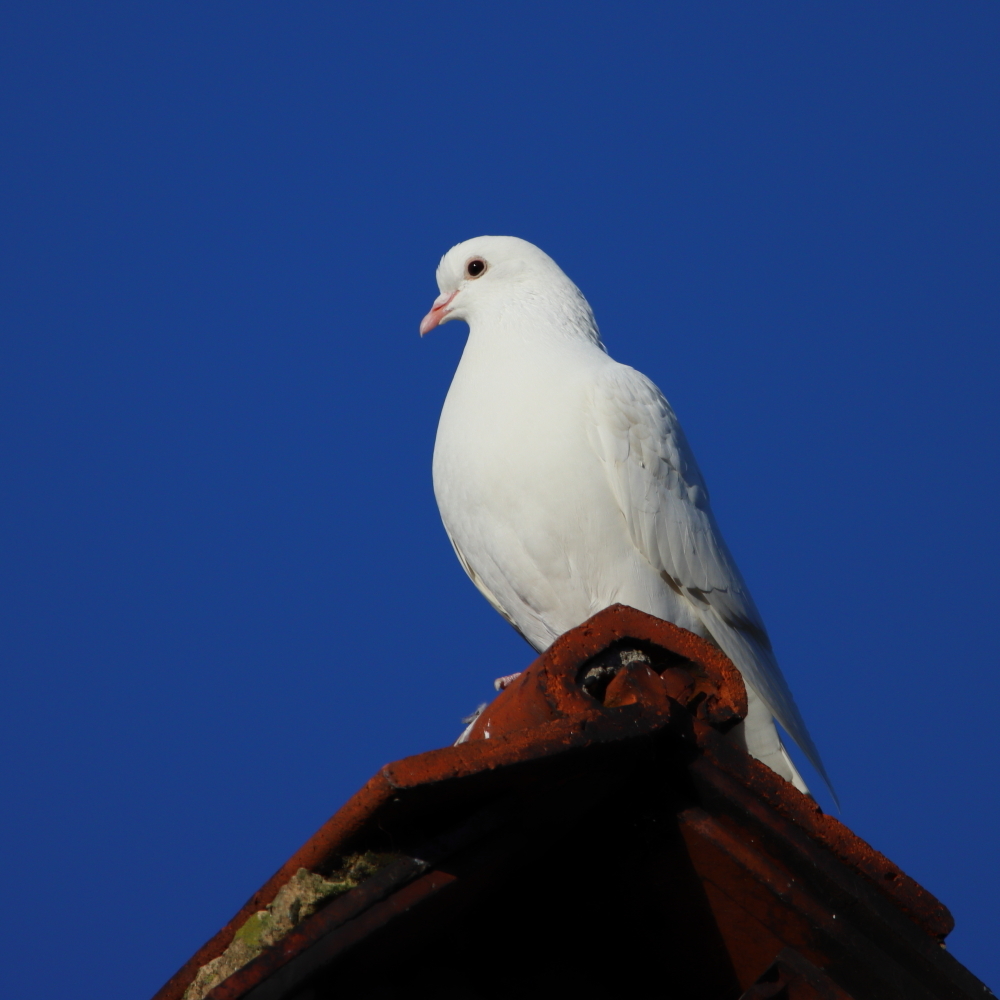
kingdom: Animalia
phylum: Chordata
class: Aves
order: Columbiformes
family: Columbidae
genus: Columba
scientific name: Columba livia
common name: Rock pigeon
